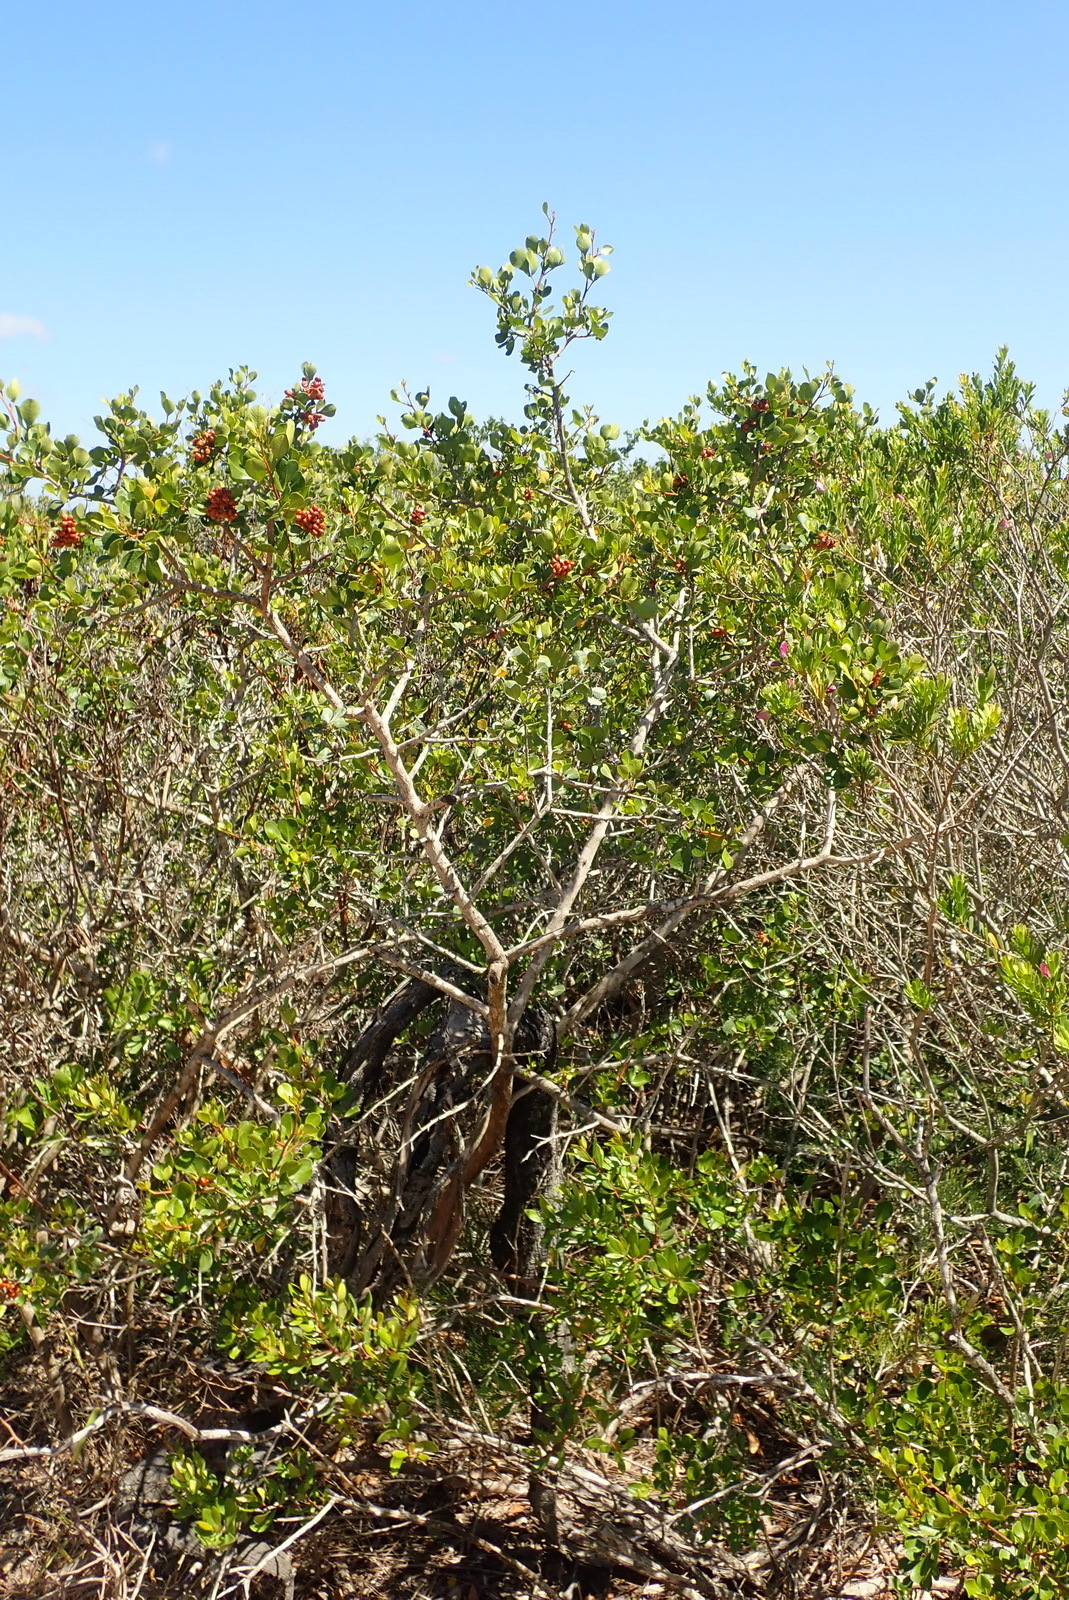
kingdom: Plantae
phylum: Tracheophyta
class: Magnoliopsida
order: Sapindales
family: Anacardiaceae
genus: Searsia
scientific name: Searsia glauca
